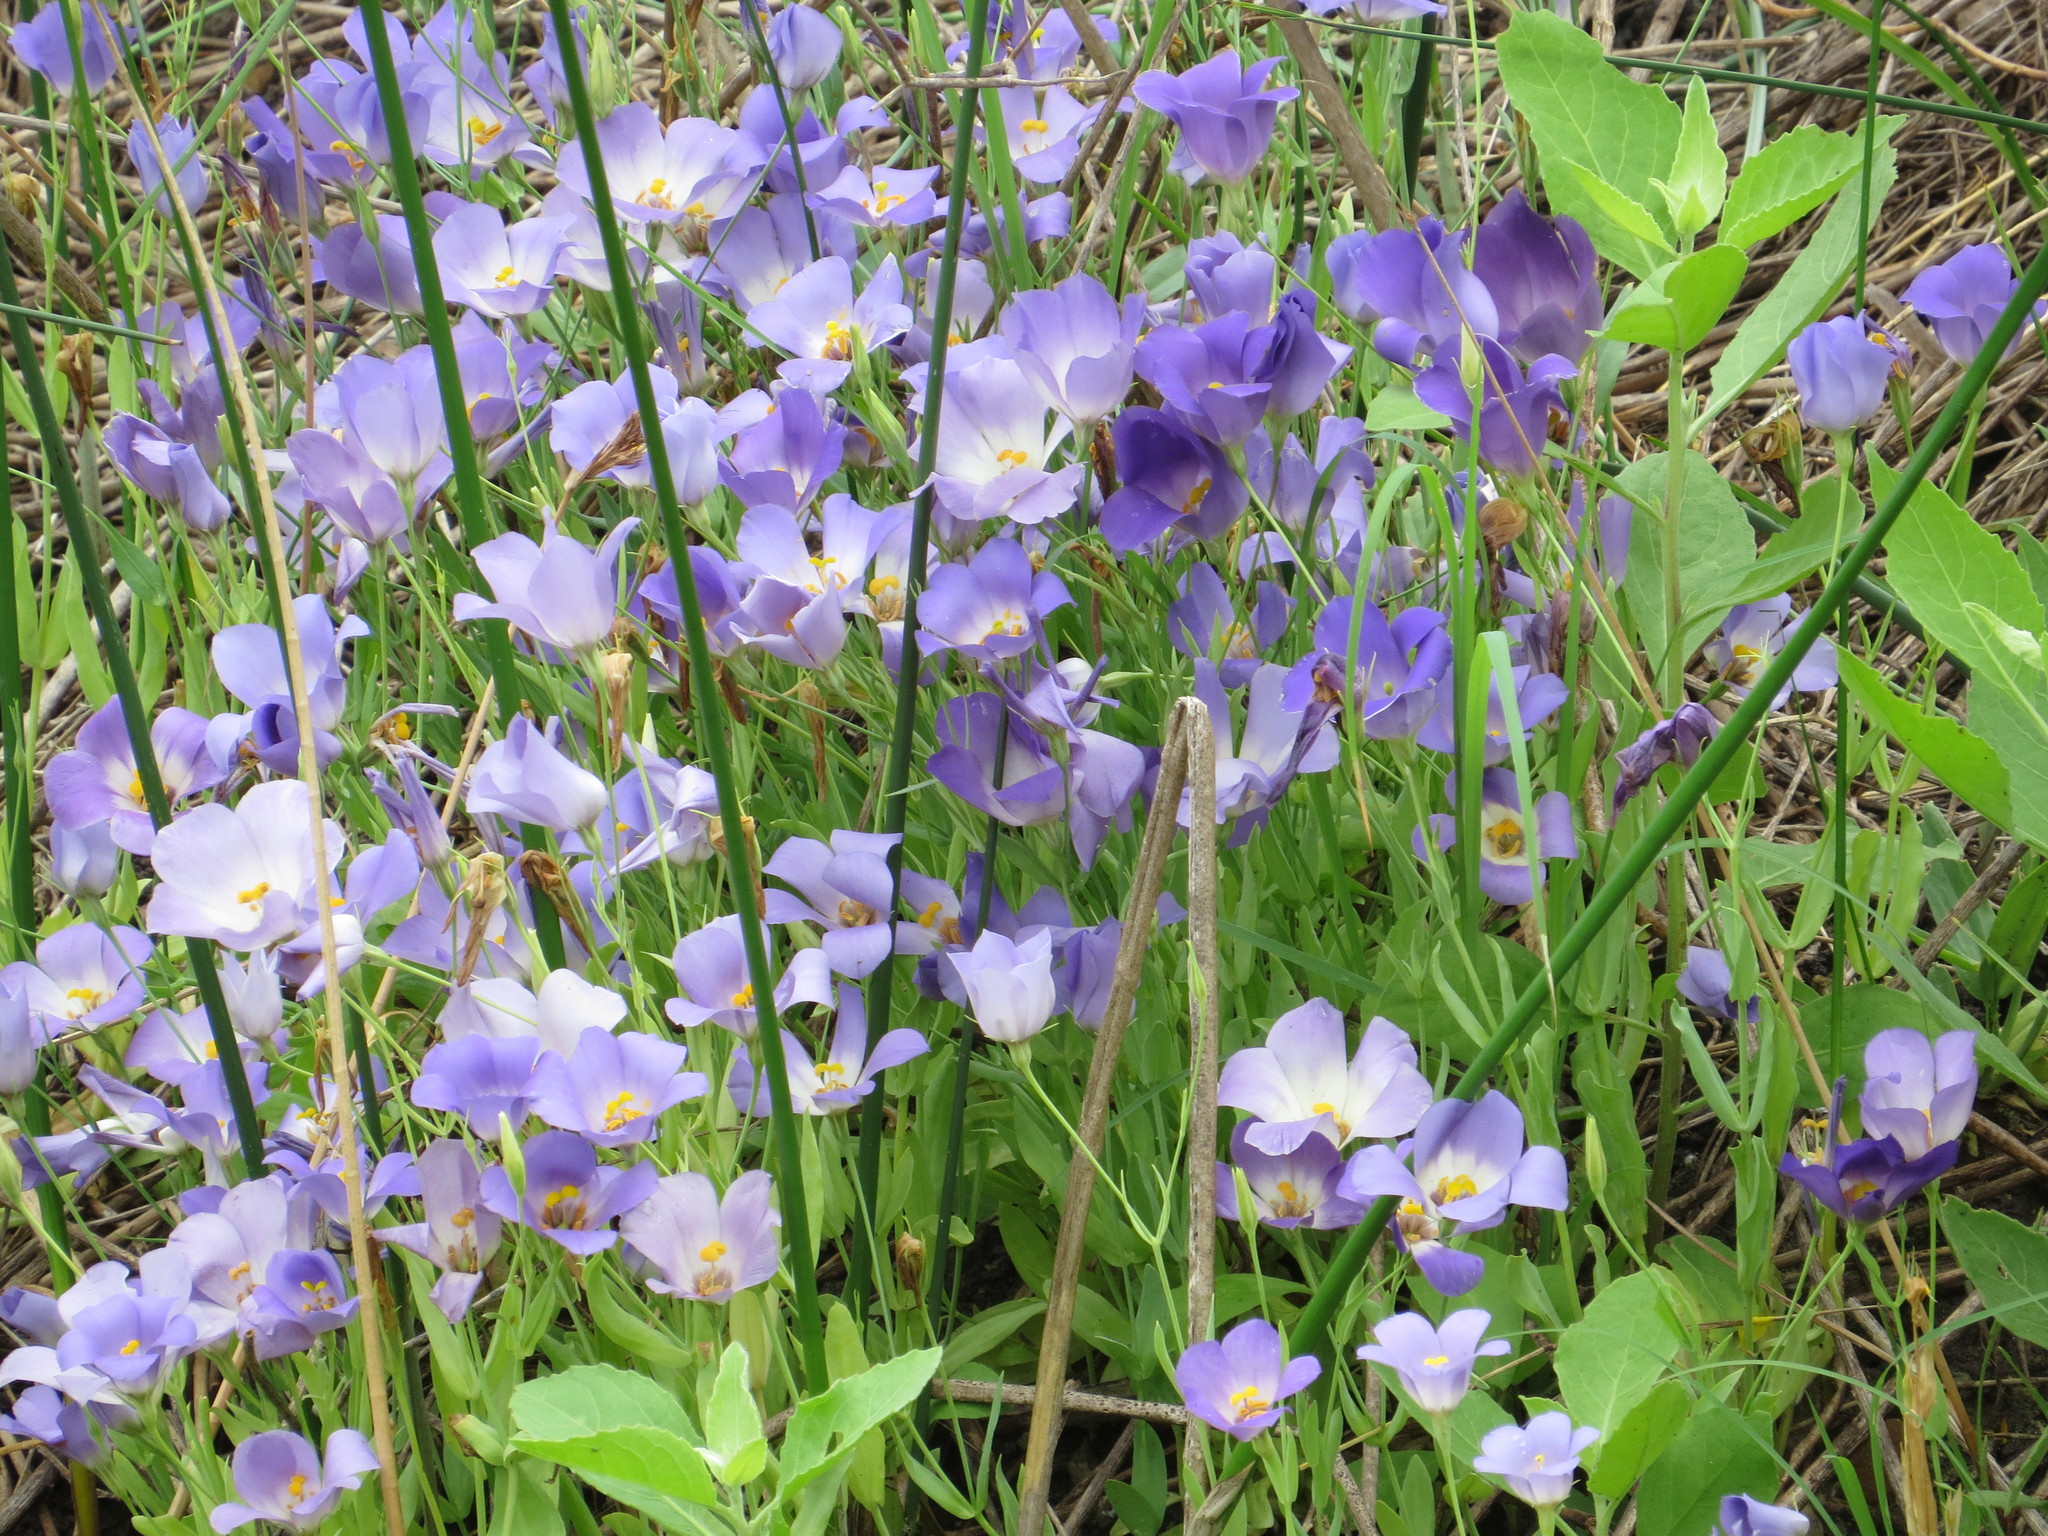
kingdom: Plantae
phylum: Tracheophyta
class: Magnoliopsida
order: Gentianales
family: Gentianaceae
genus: Eustoma
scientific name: Eustoma exaltatum
